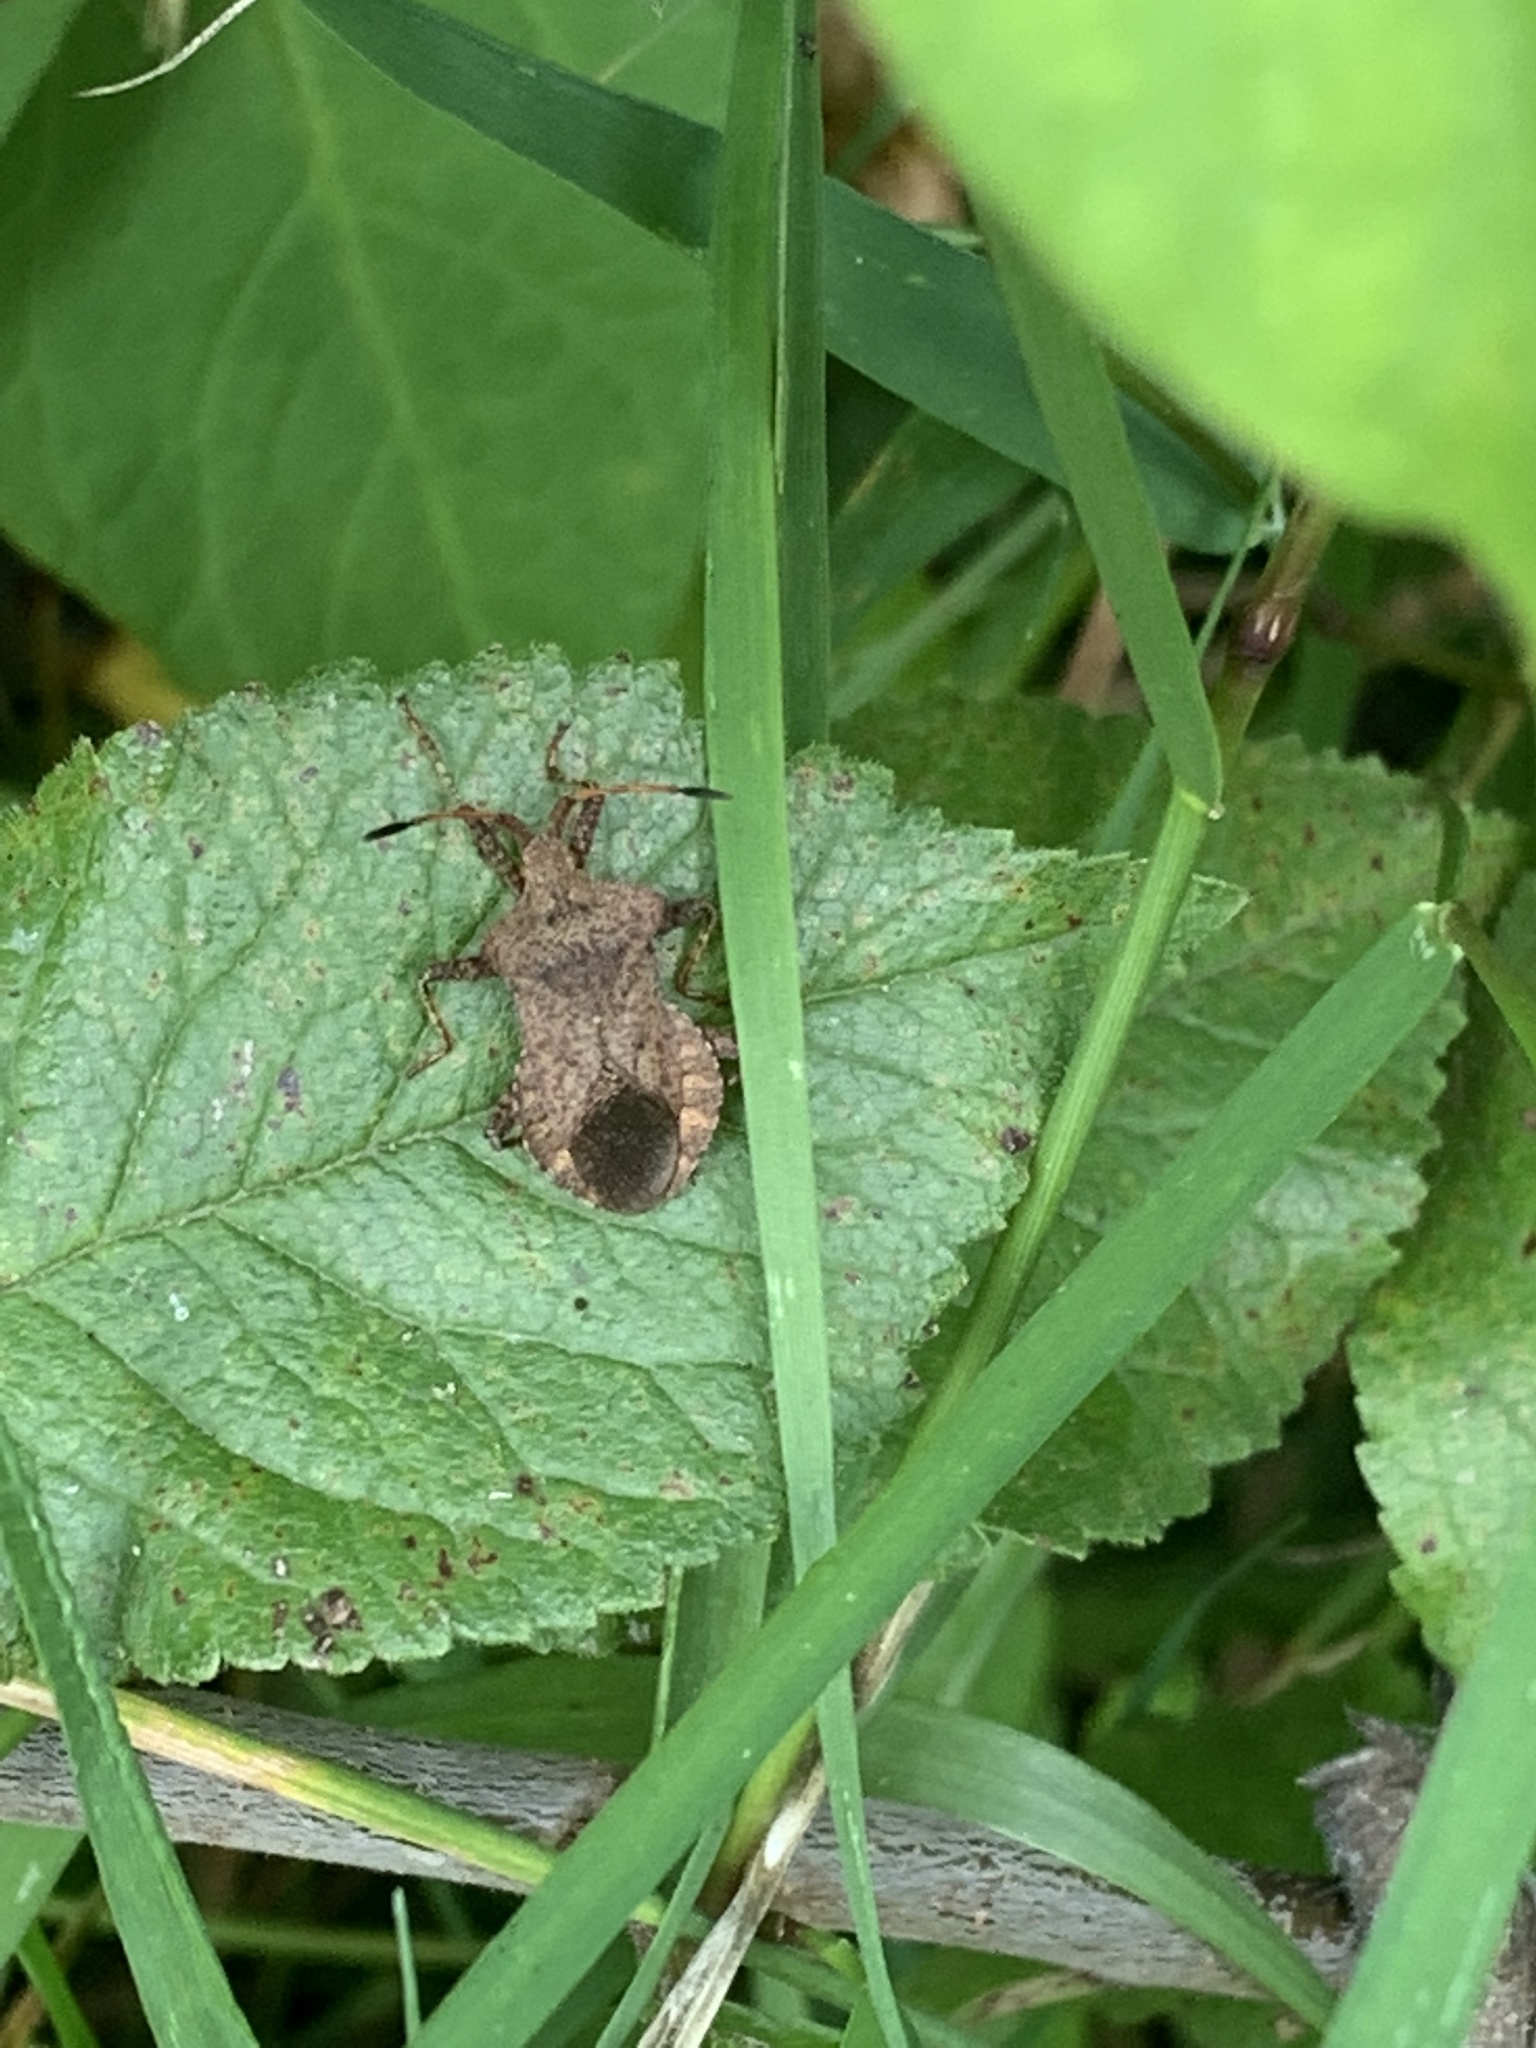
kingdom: Animalia
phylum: Arthropoda
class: Insecta
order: Hemiptera
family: Coreidae
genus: Coreus
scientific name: Coreus marginatus
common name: Dock bug
